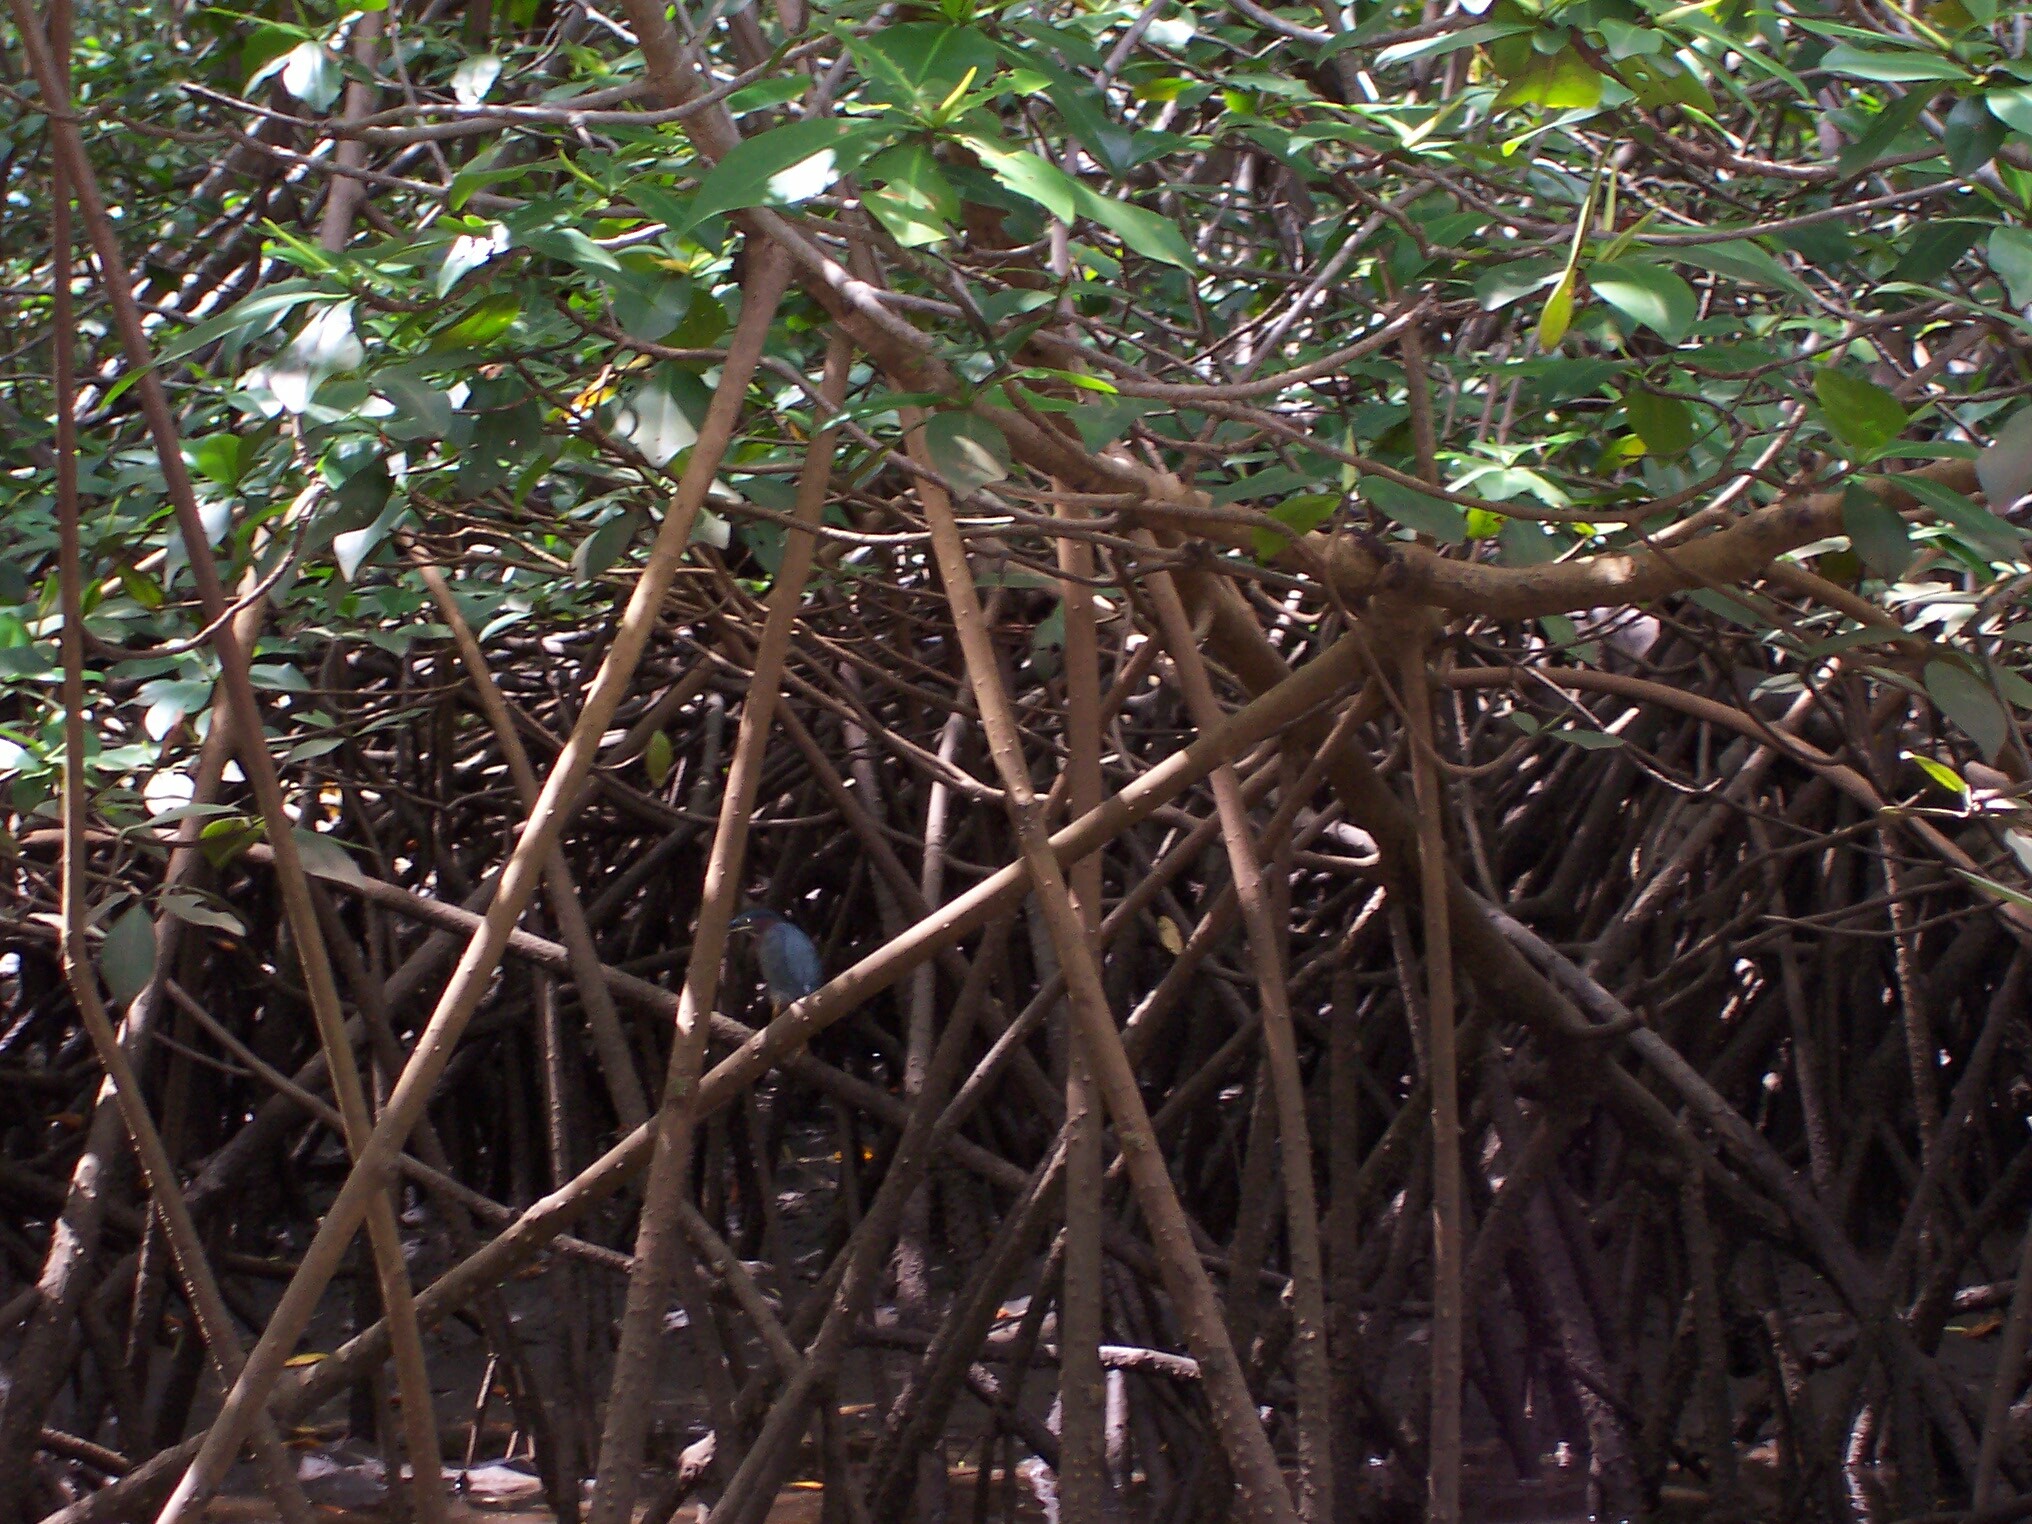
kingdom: Animalia
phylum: Chordata
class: Aves
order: Pelecaniformes
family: Ardeidae
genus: Butorides
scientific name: Butorides virescens
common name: Green heron
